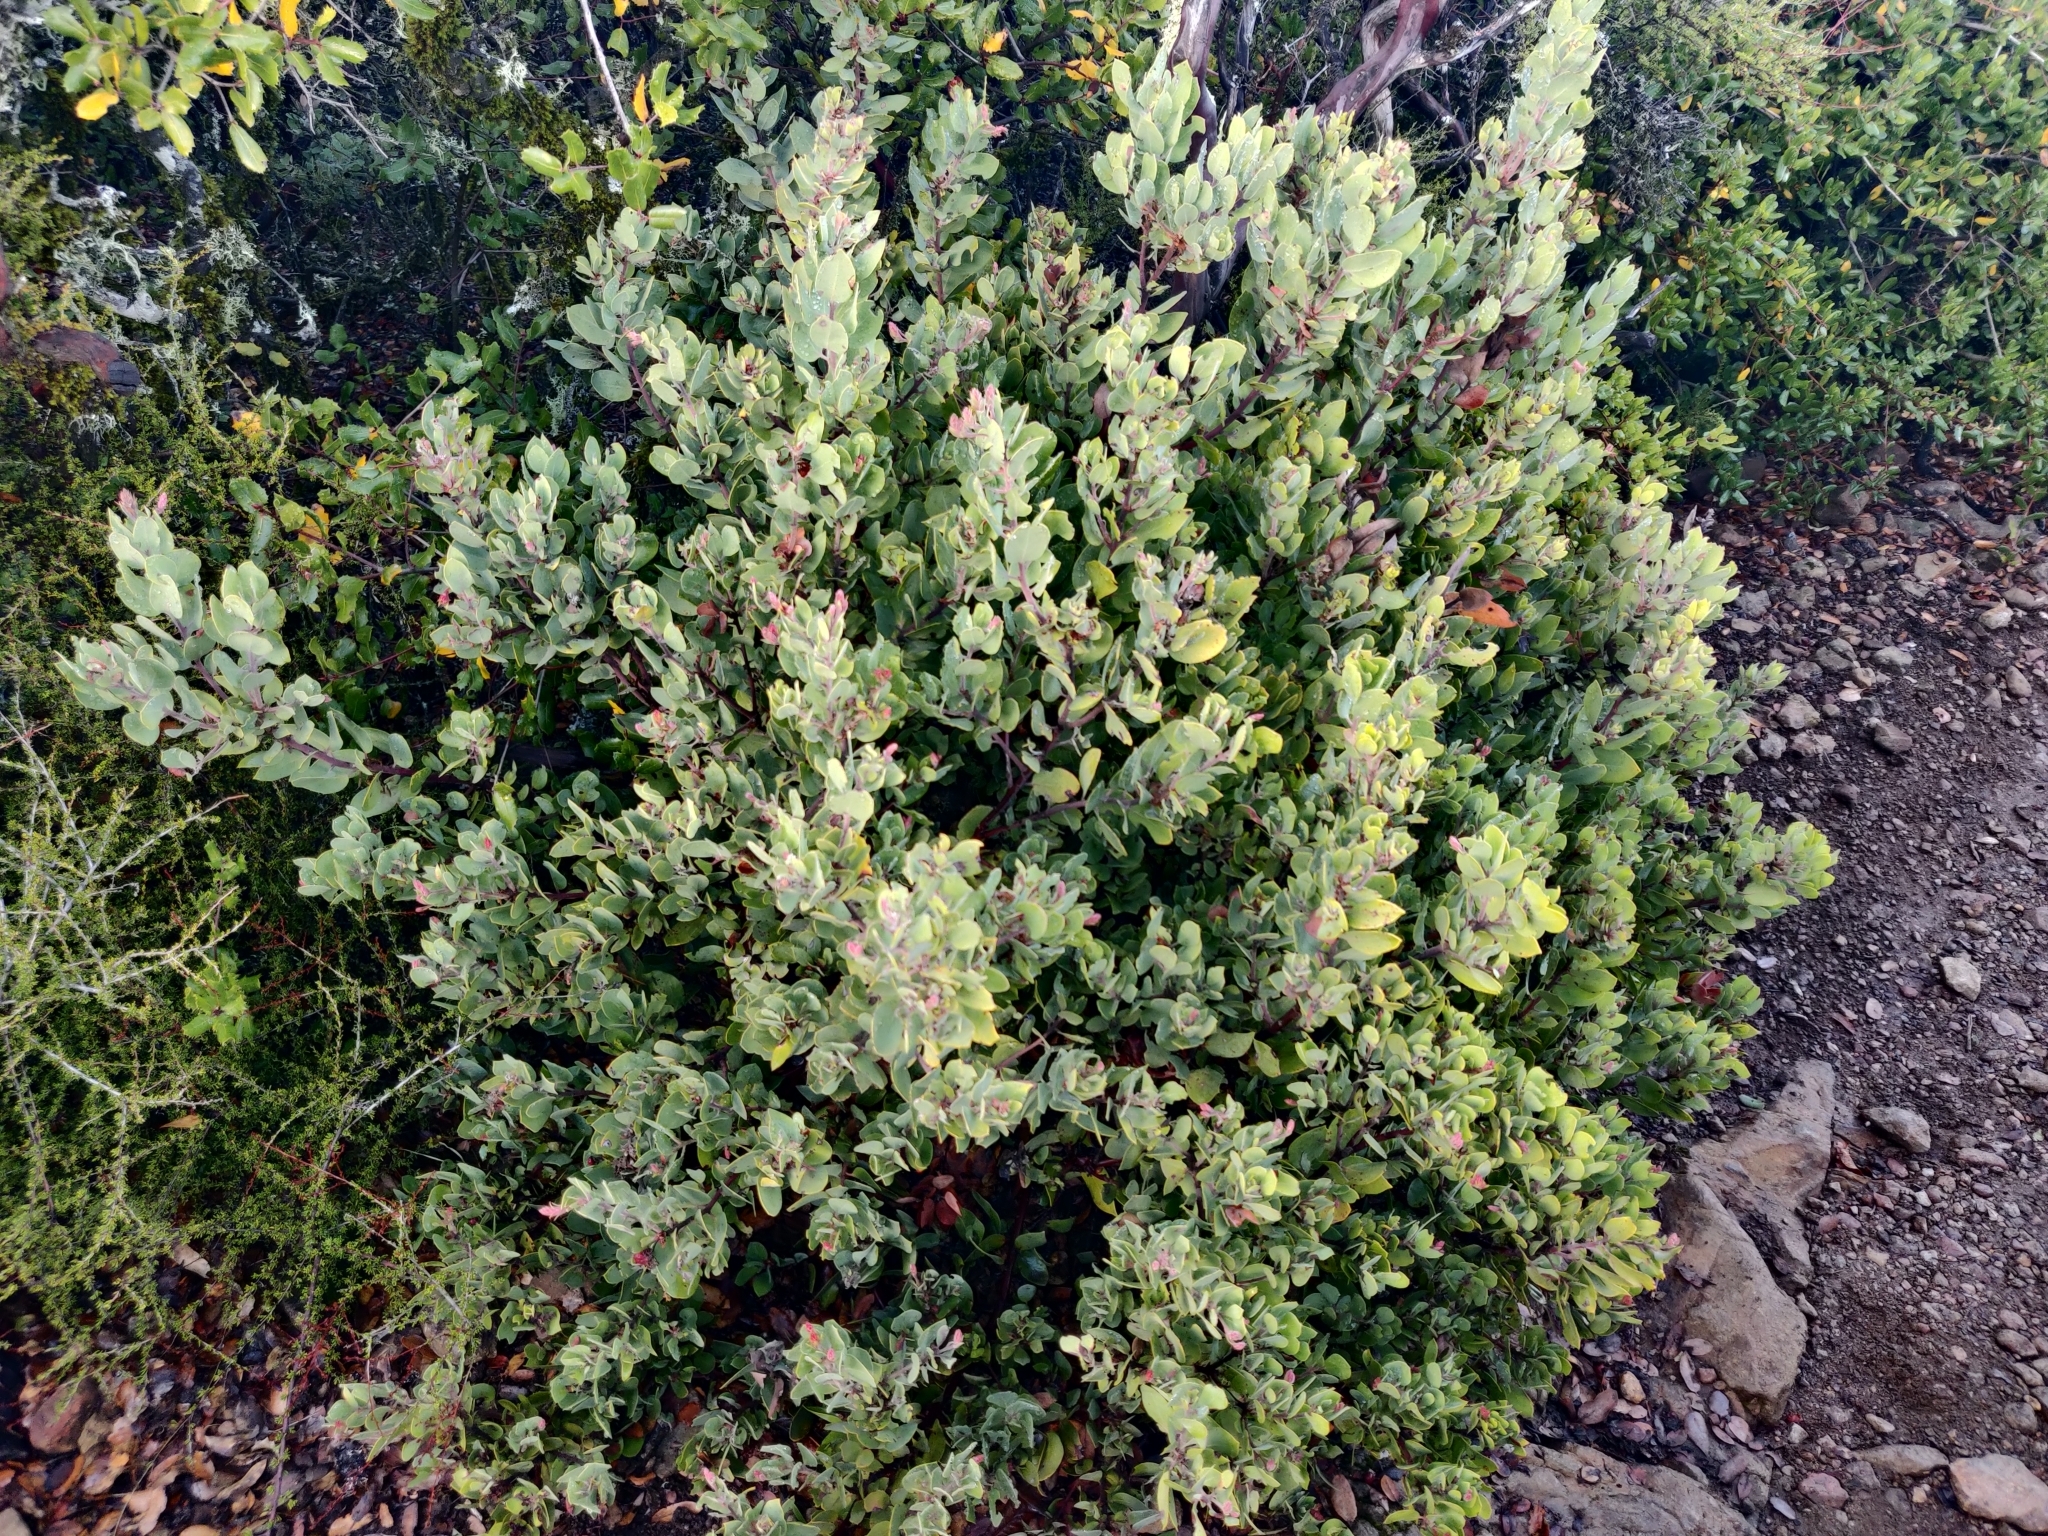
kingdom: Plantae
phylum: Tracheophyta
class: Magnoliopsida
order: Ericales
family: Ericaceae
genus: Arctostaphylos
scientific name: Arctostaphylos glandulosa
